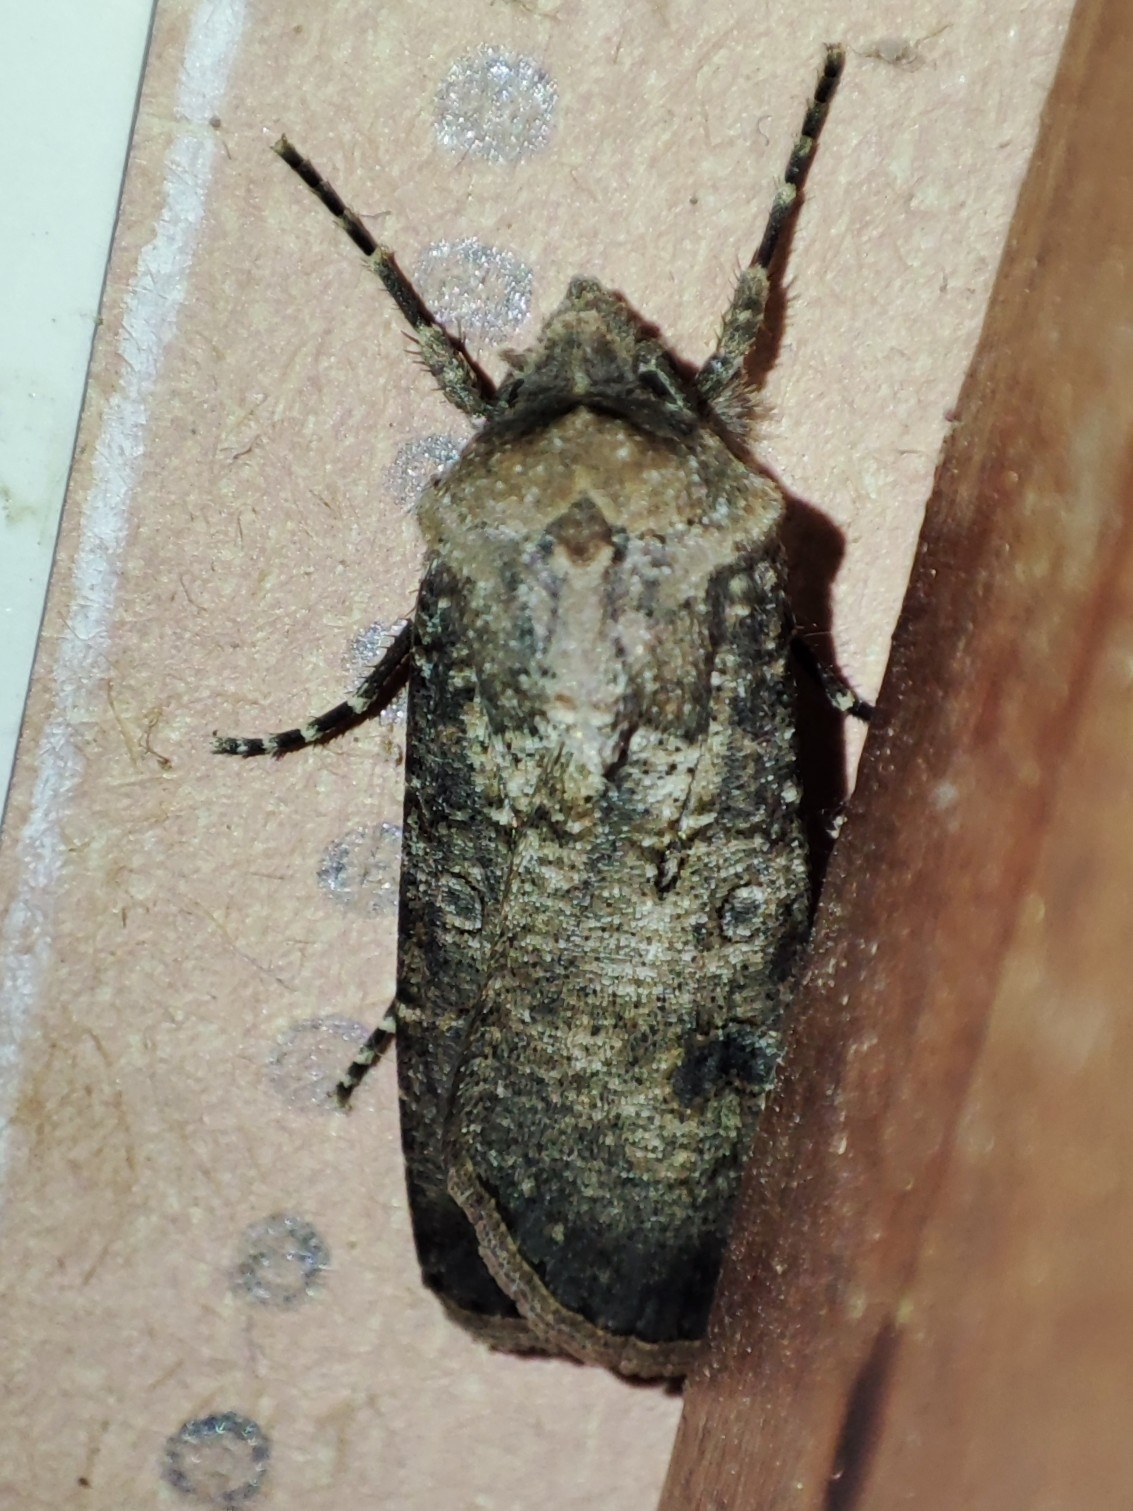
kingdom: Animalia
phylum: Arthropoda
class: Insecta
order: Lepidoptera
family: Noctuidae
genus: Agrotis
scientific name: Agrotis segetum
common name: Turnip moth
